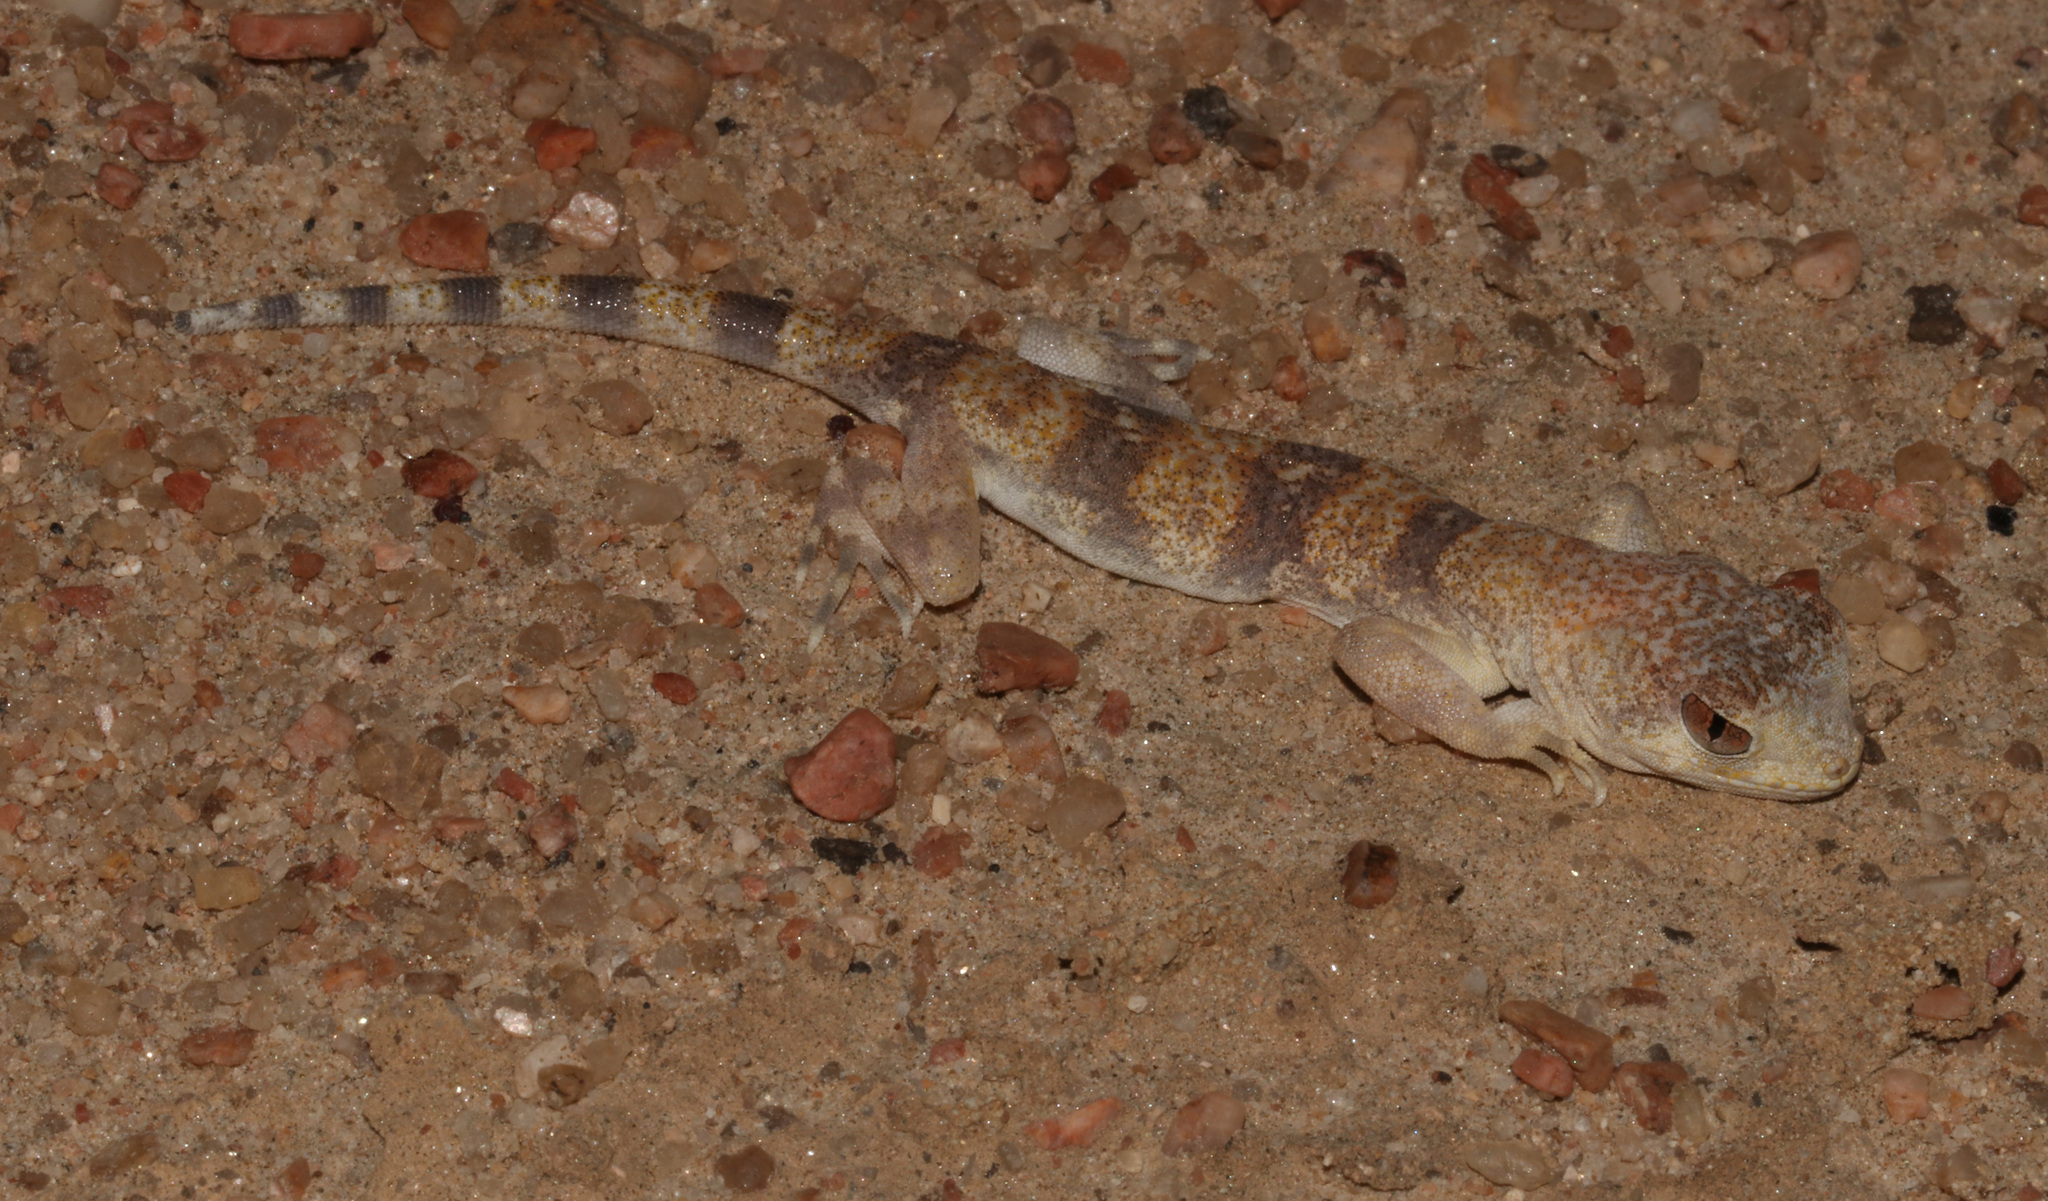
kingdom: Animalia
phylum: Chordata
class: Squamata
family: Gekkonidae
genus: Ptenopus
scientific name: Ptenopus carpi
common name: Namib chirping gecko
